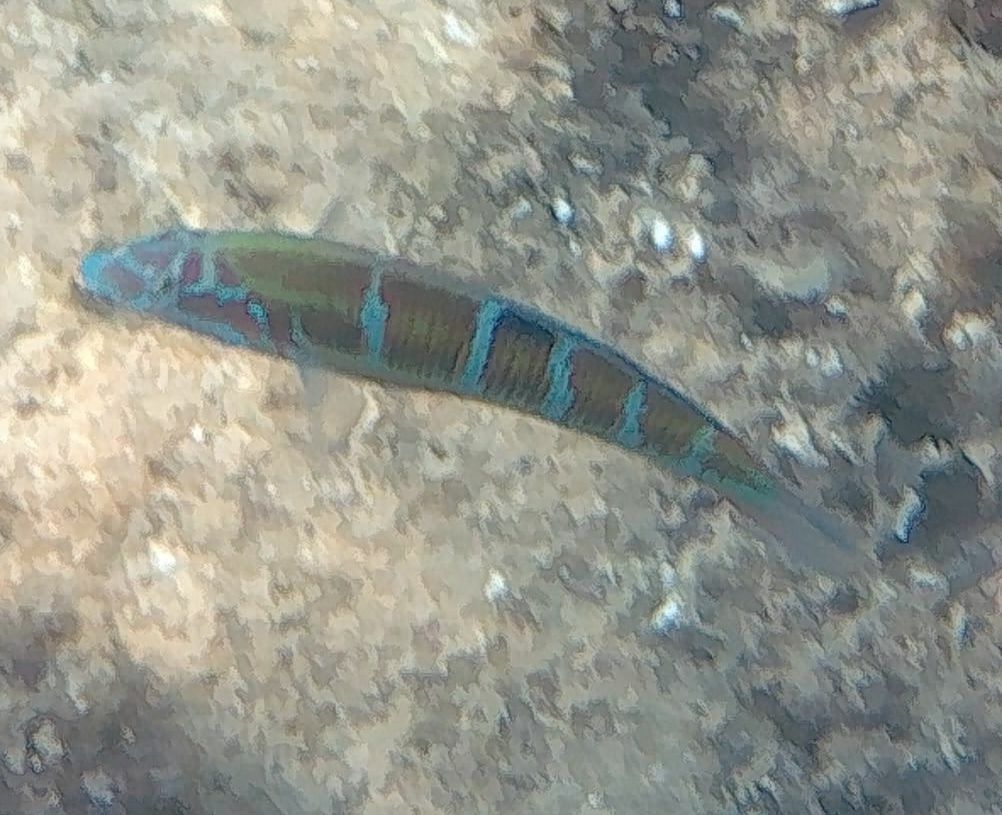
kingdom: Animalia
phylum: Chordata
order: Perciformes
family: Labridae
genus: Thalassoma
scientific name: Thalassoma pavo
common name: Ornate wrasse
